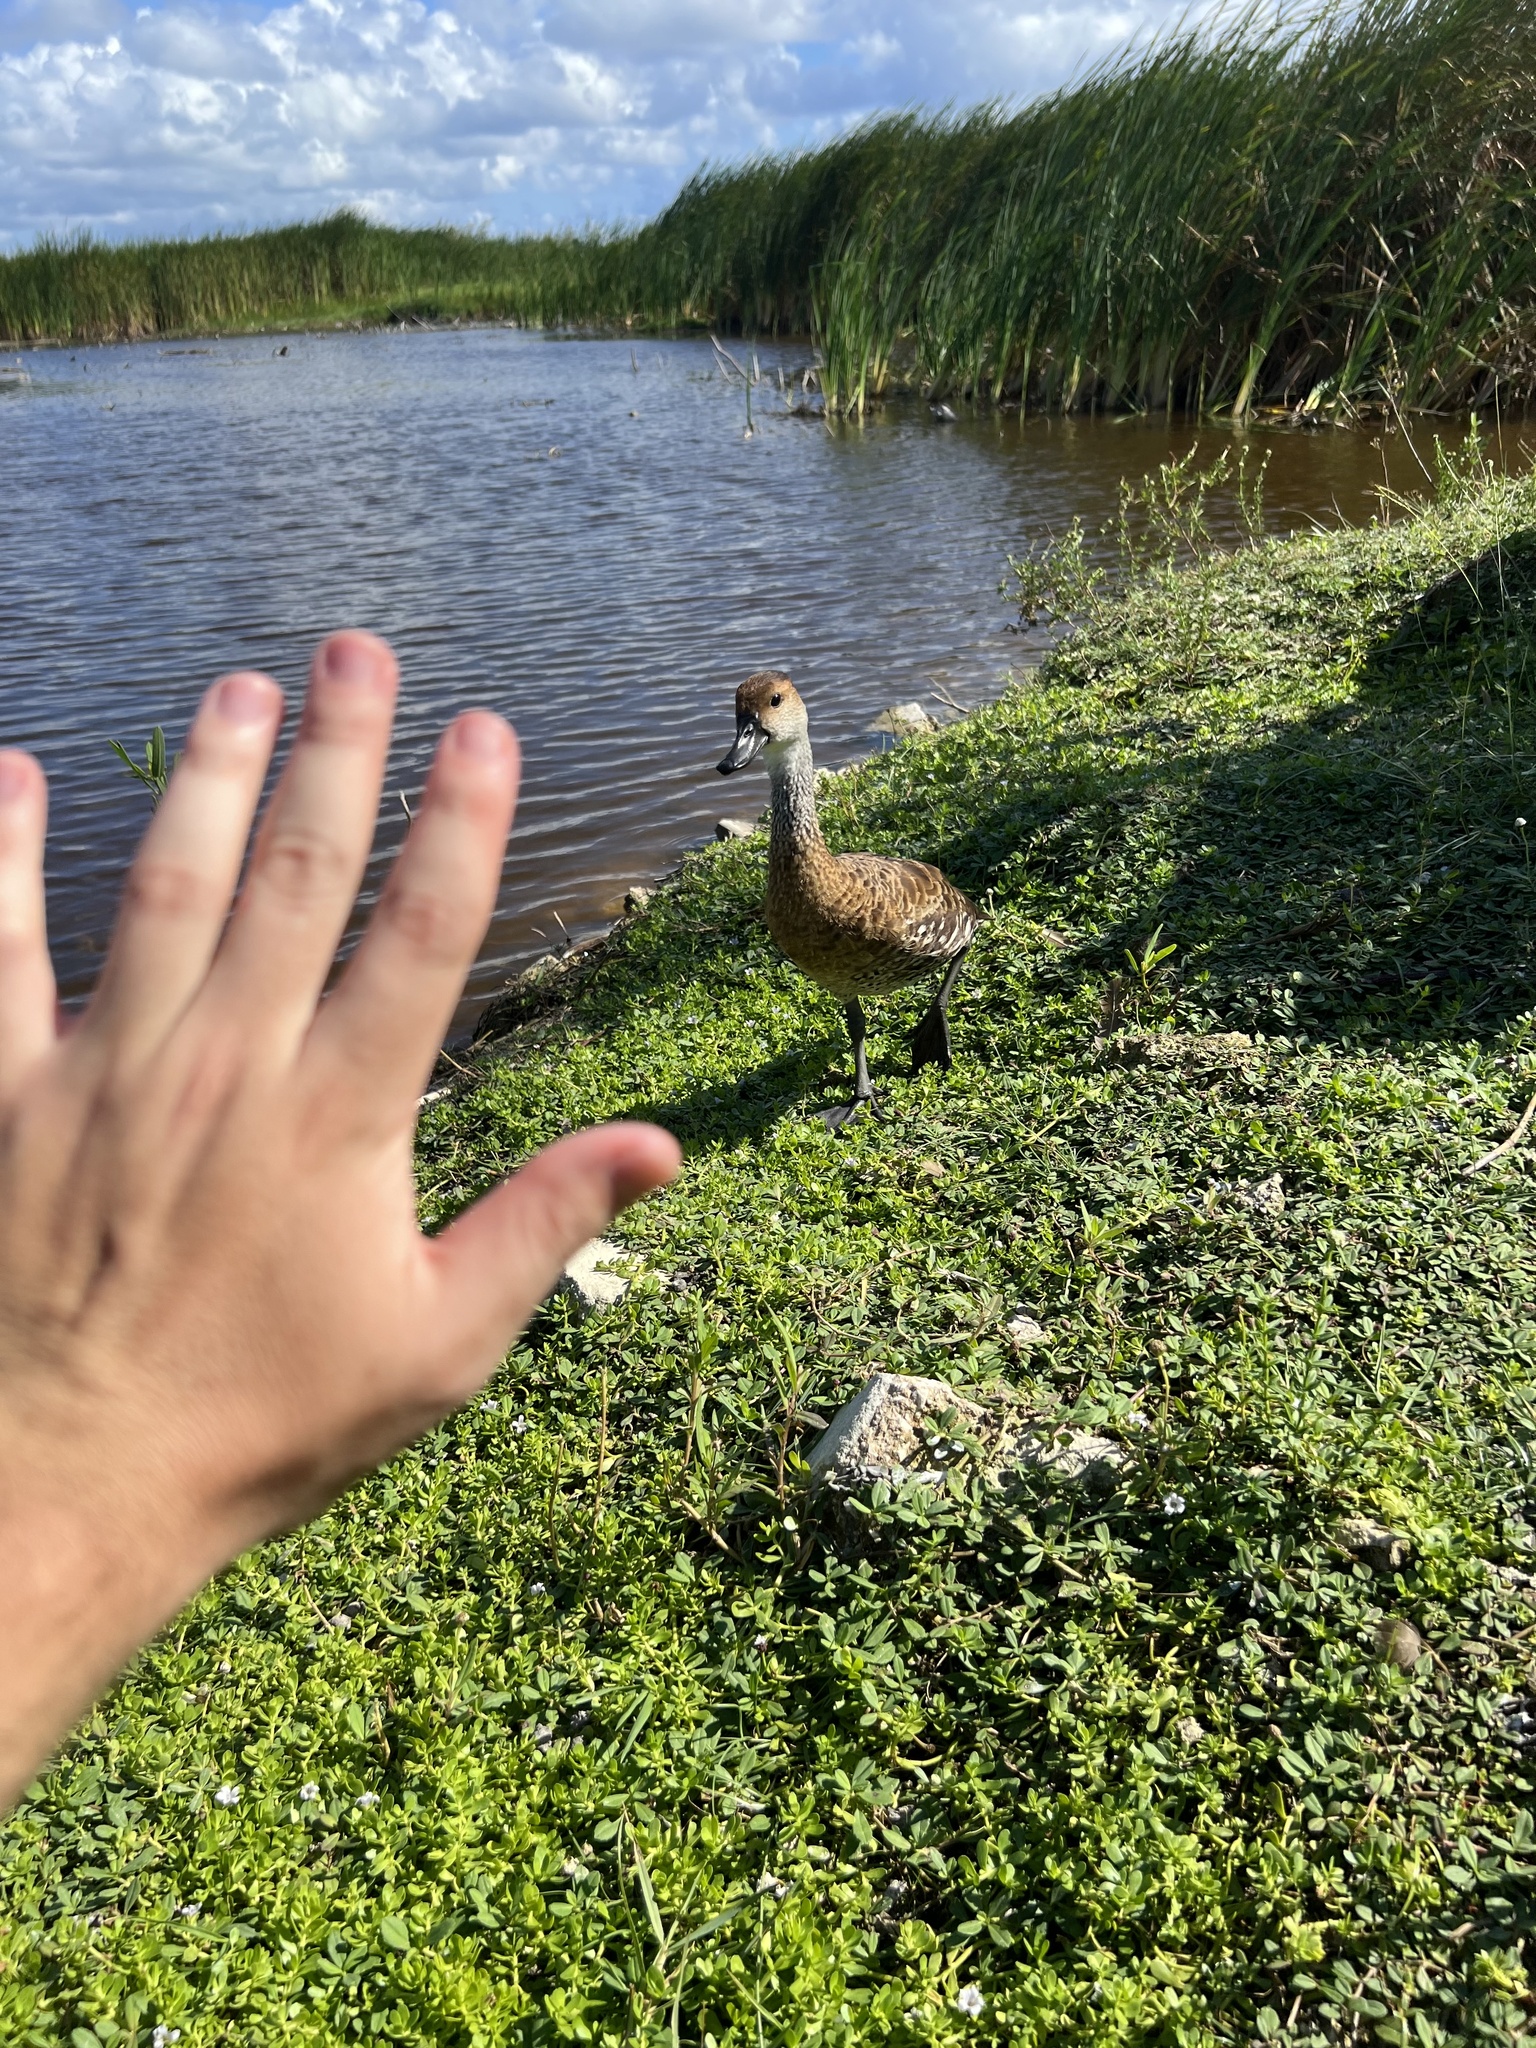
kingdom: Animalia
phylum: Chordata
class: Aves
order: Anseriformes
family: Anatidae
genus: Dendrocygna
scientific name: Dendrocygna arborea
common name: West indian whistling duck
